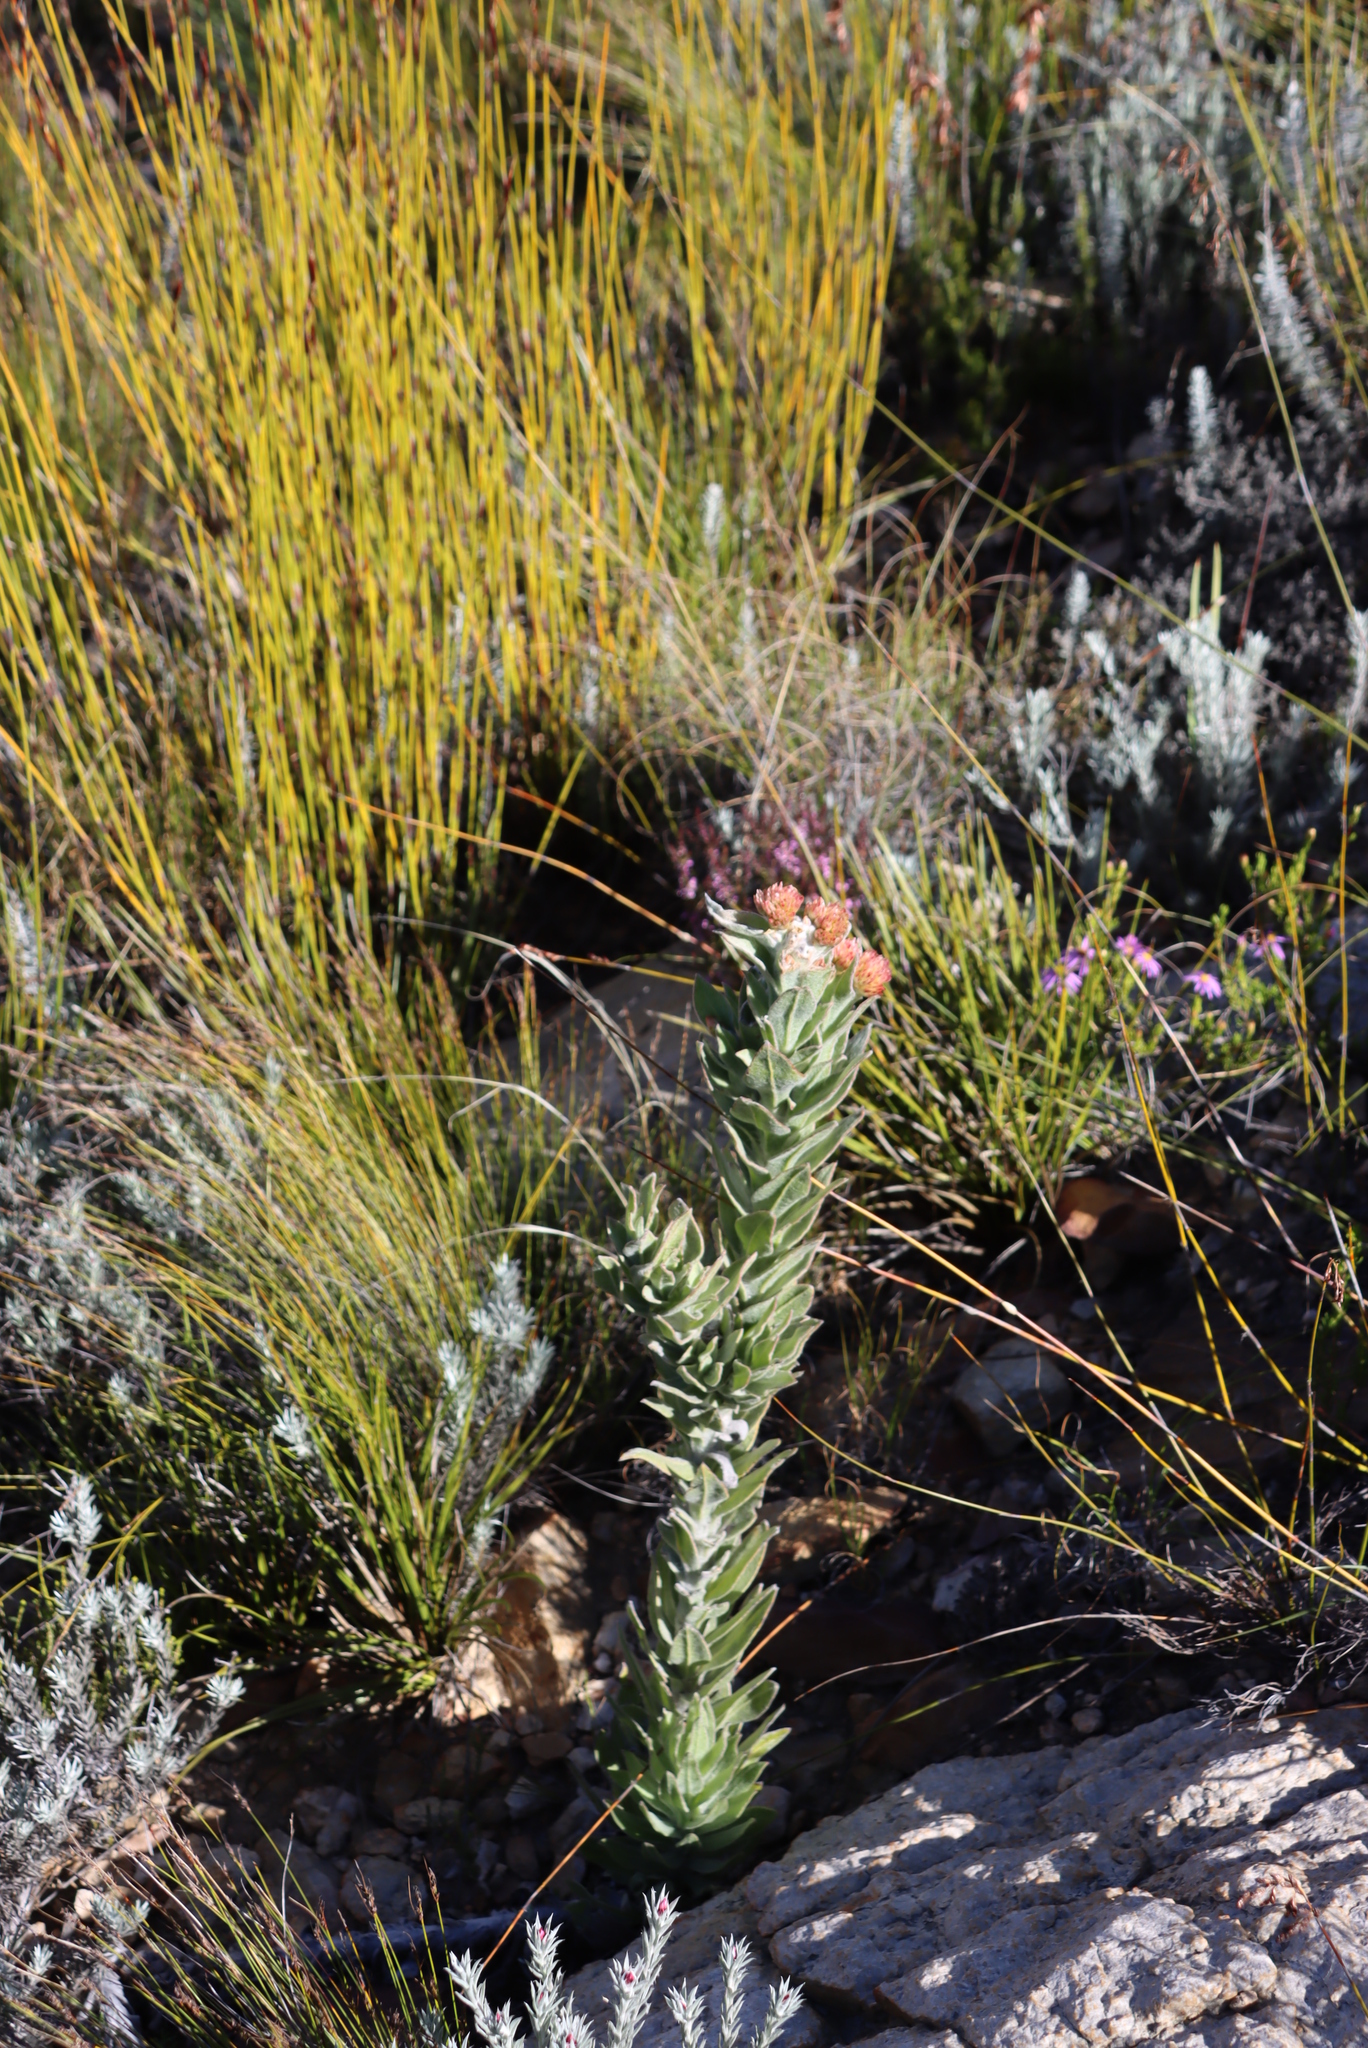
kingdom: Plantae
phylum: Tracheophyta
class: Magnoliopsida
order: Asterales
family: Asteraceae
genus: Syncarpha
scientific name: Syncarpha milleflora
